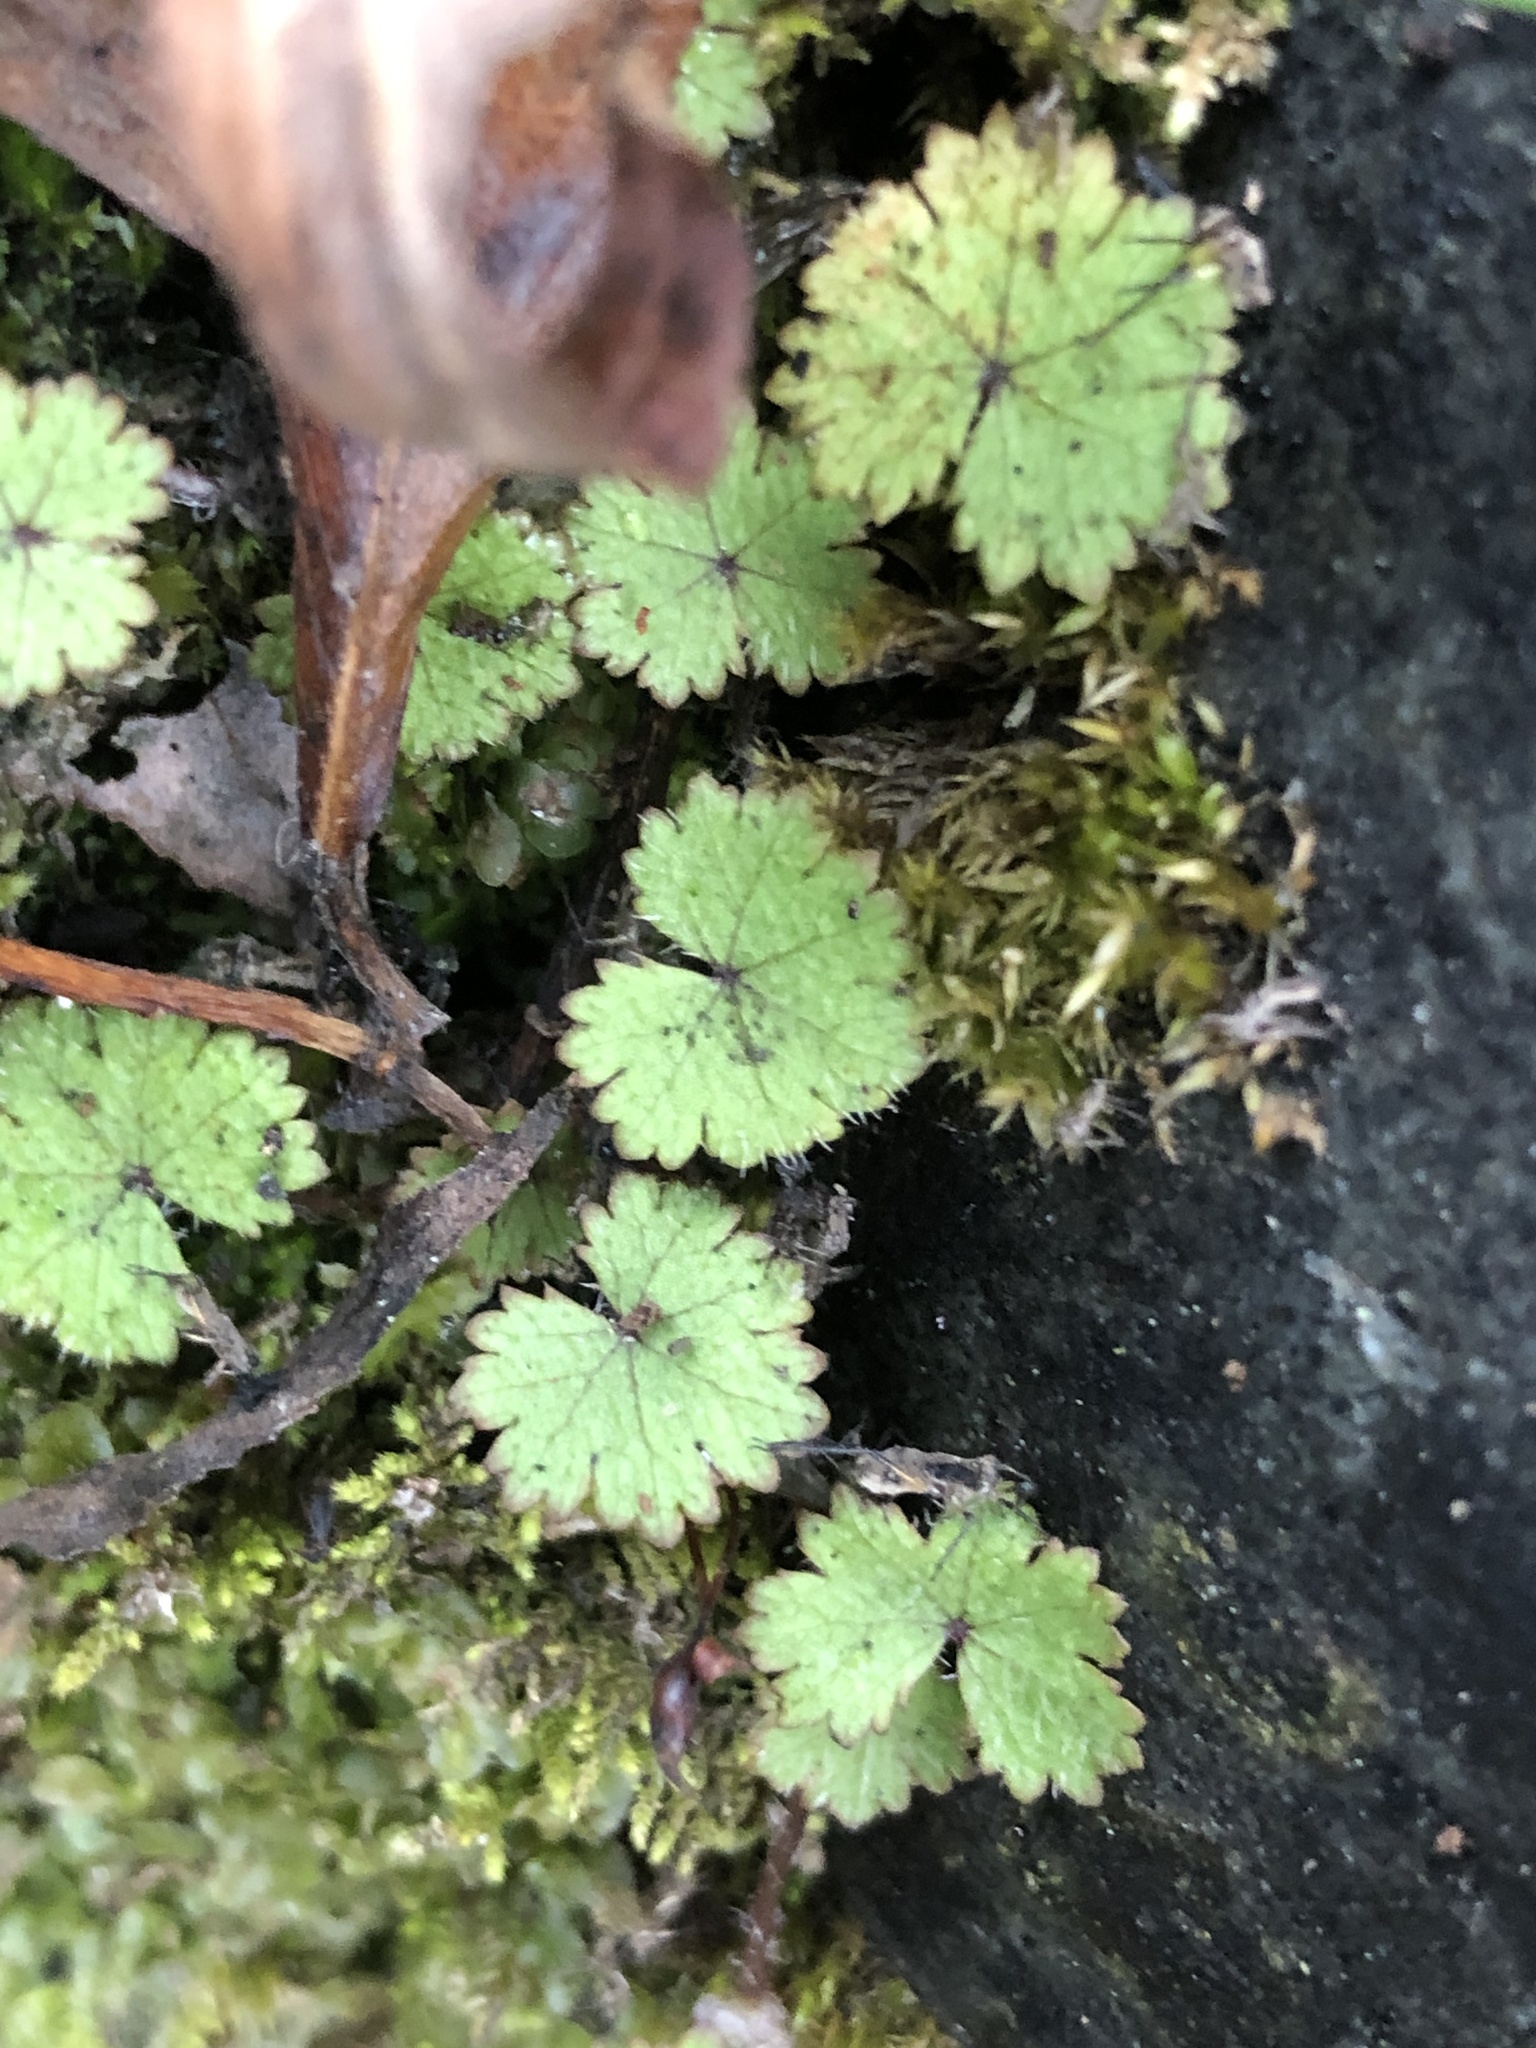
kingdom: Plantae
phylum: Tracheophyta
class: Magnoliopsida
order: Apiales
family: Araliaceae
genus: Hydrocotyle
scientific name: Hydrocotyle moschata
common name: Hairy pennywort
